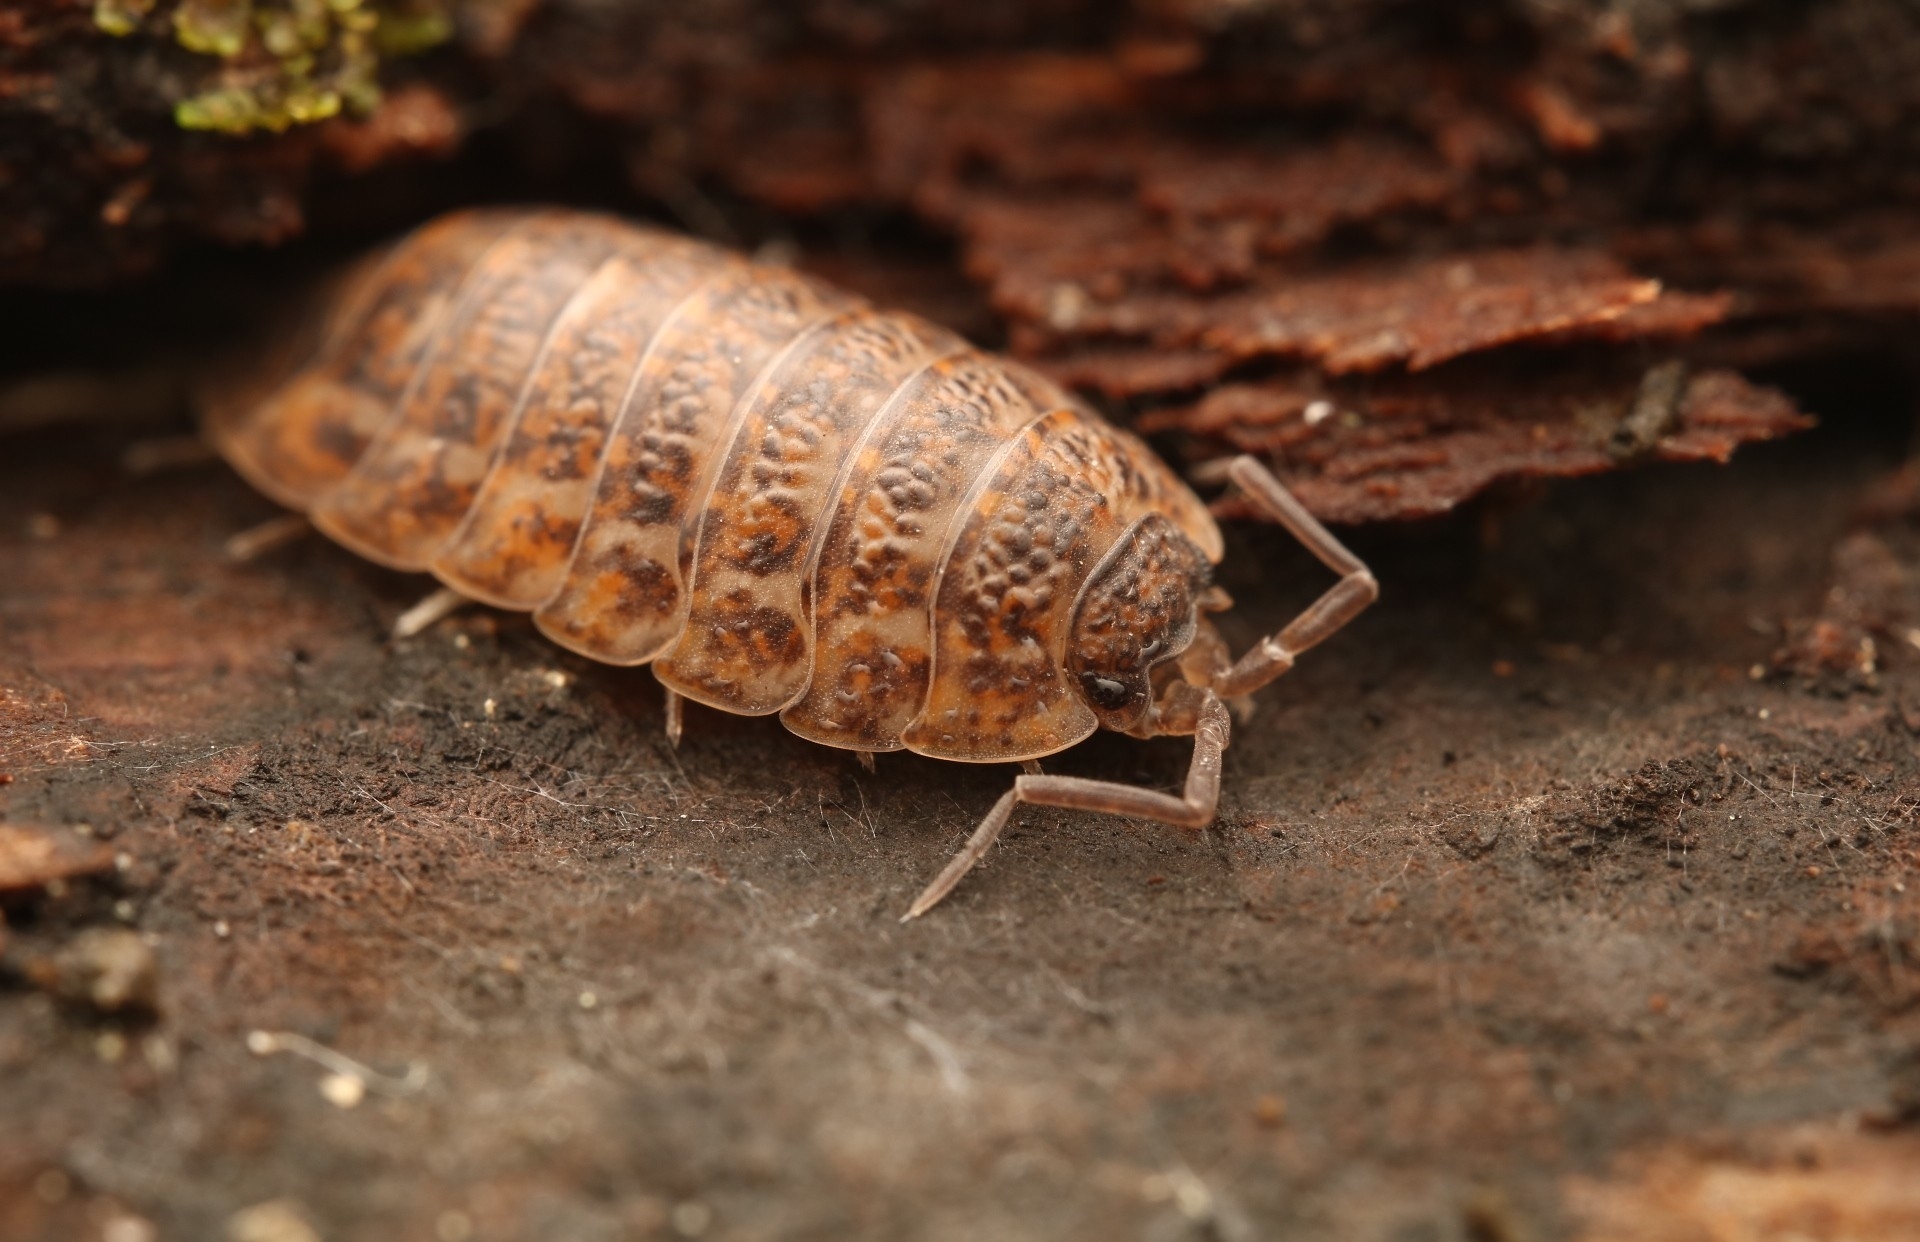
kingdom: Animalia
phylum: Arthropoda
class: Malacostraca
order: Isopoda
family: Trachelipodidae
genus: Trachelipus
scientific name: Trachelipus rathkii
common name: Isopod
